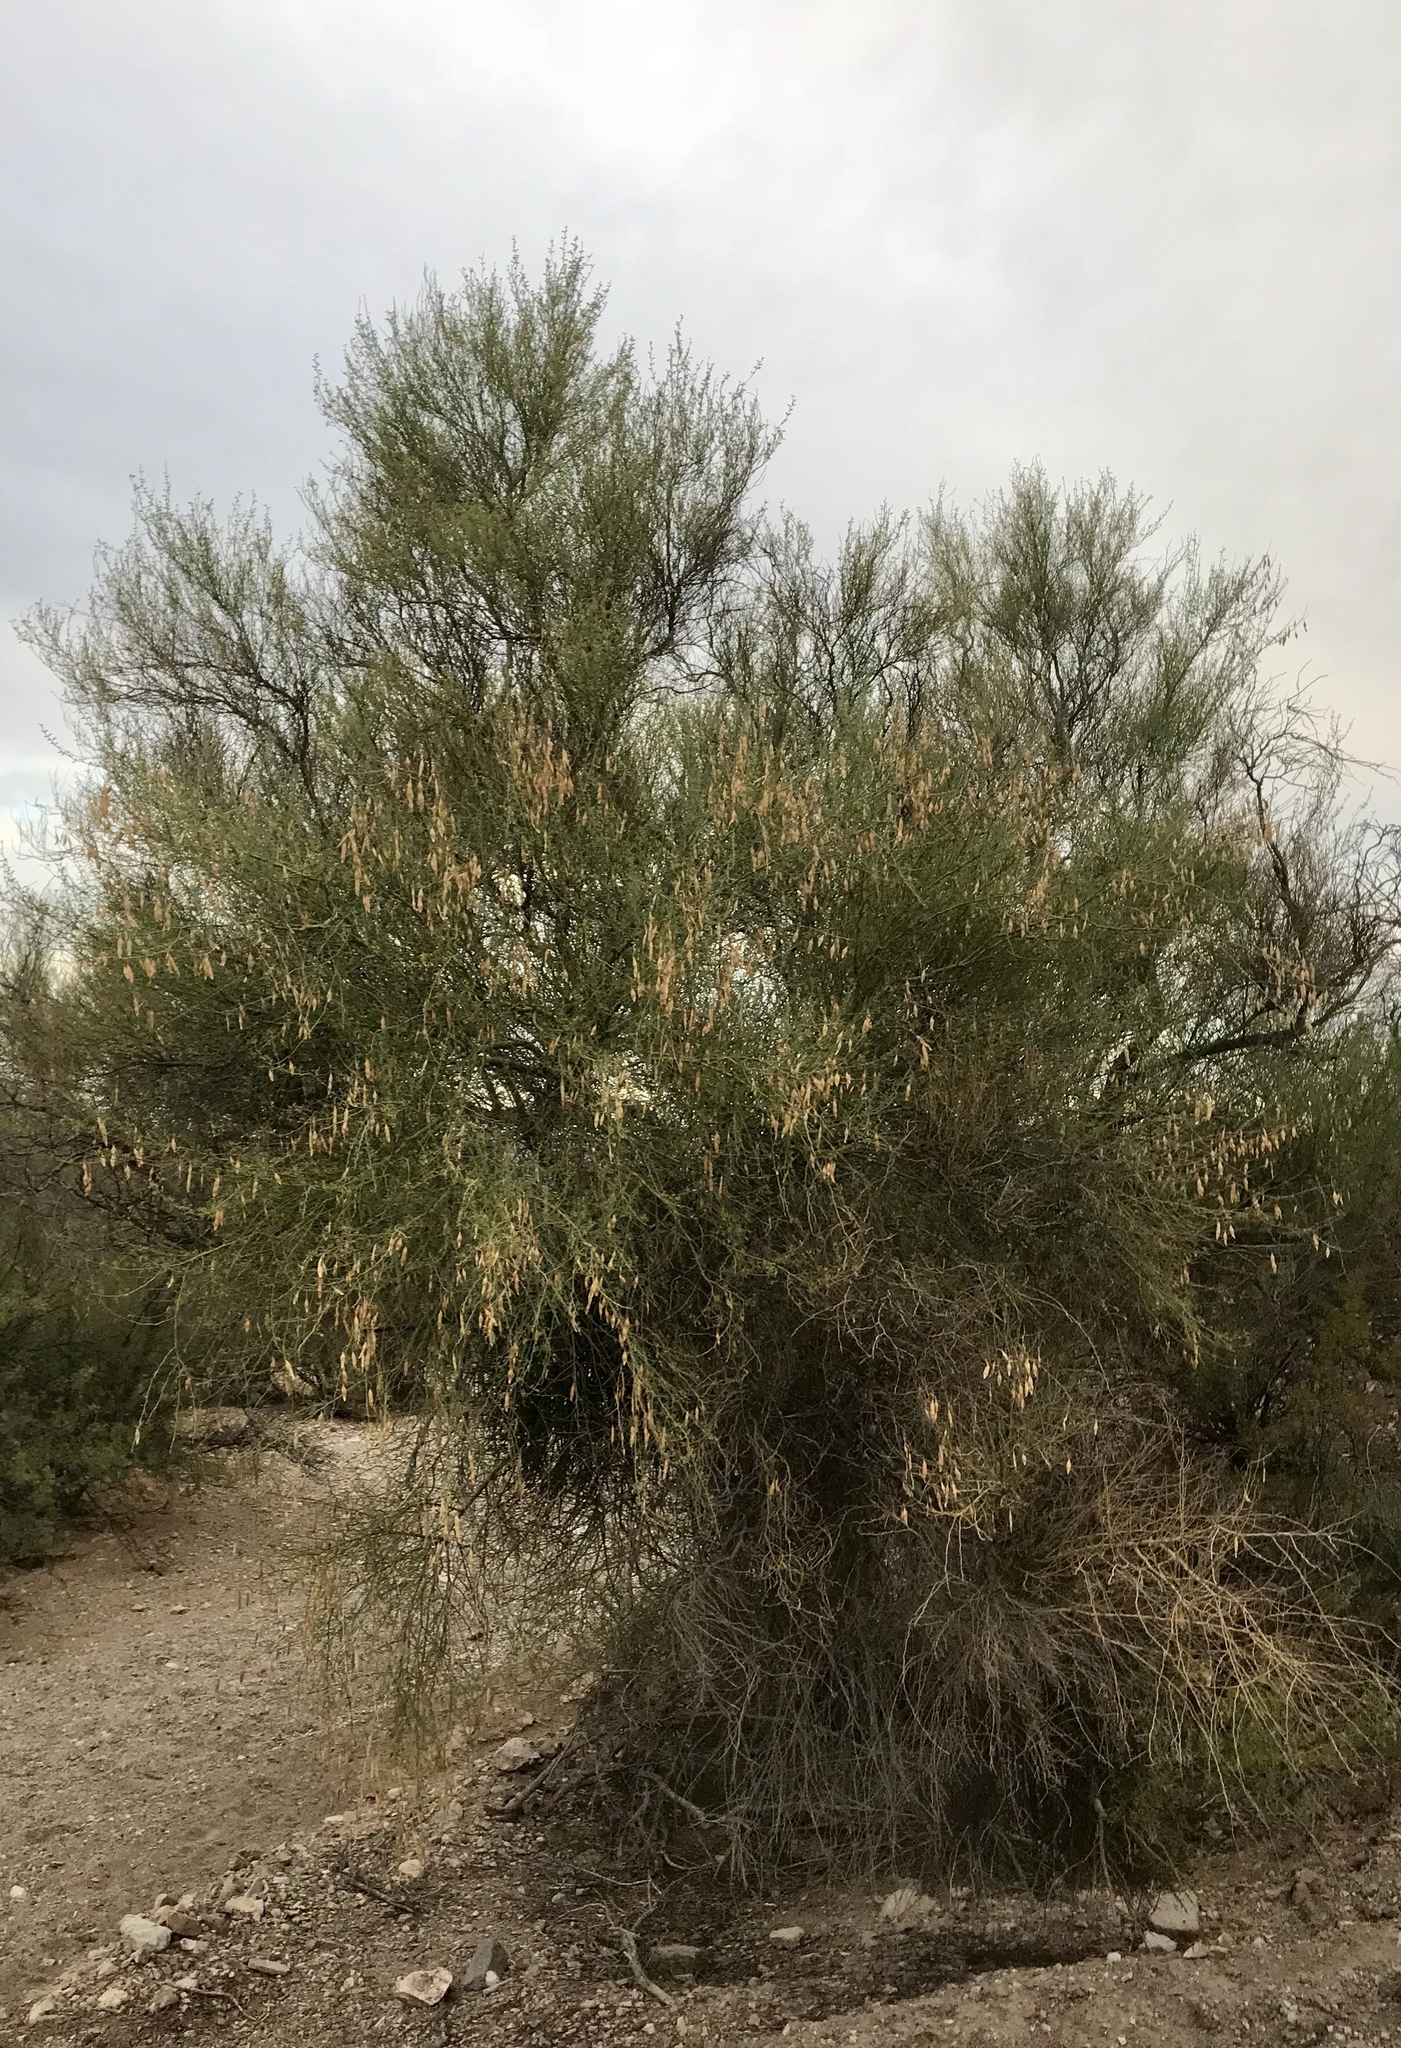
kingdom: Plantae
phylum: Tracheophyta
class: Magnoliopsida
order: Fabales
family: Fabaceae
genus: Parkinsonia
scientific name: Parkinsonia florida
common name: Blue paloverde
